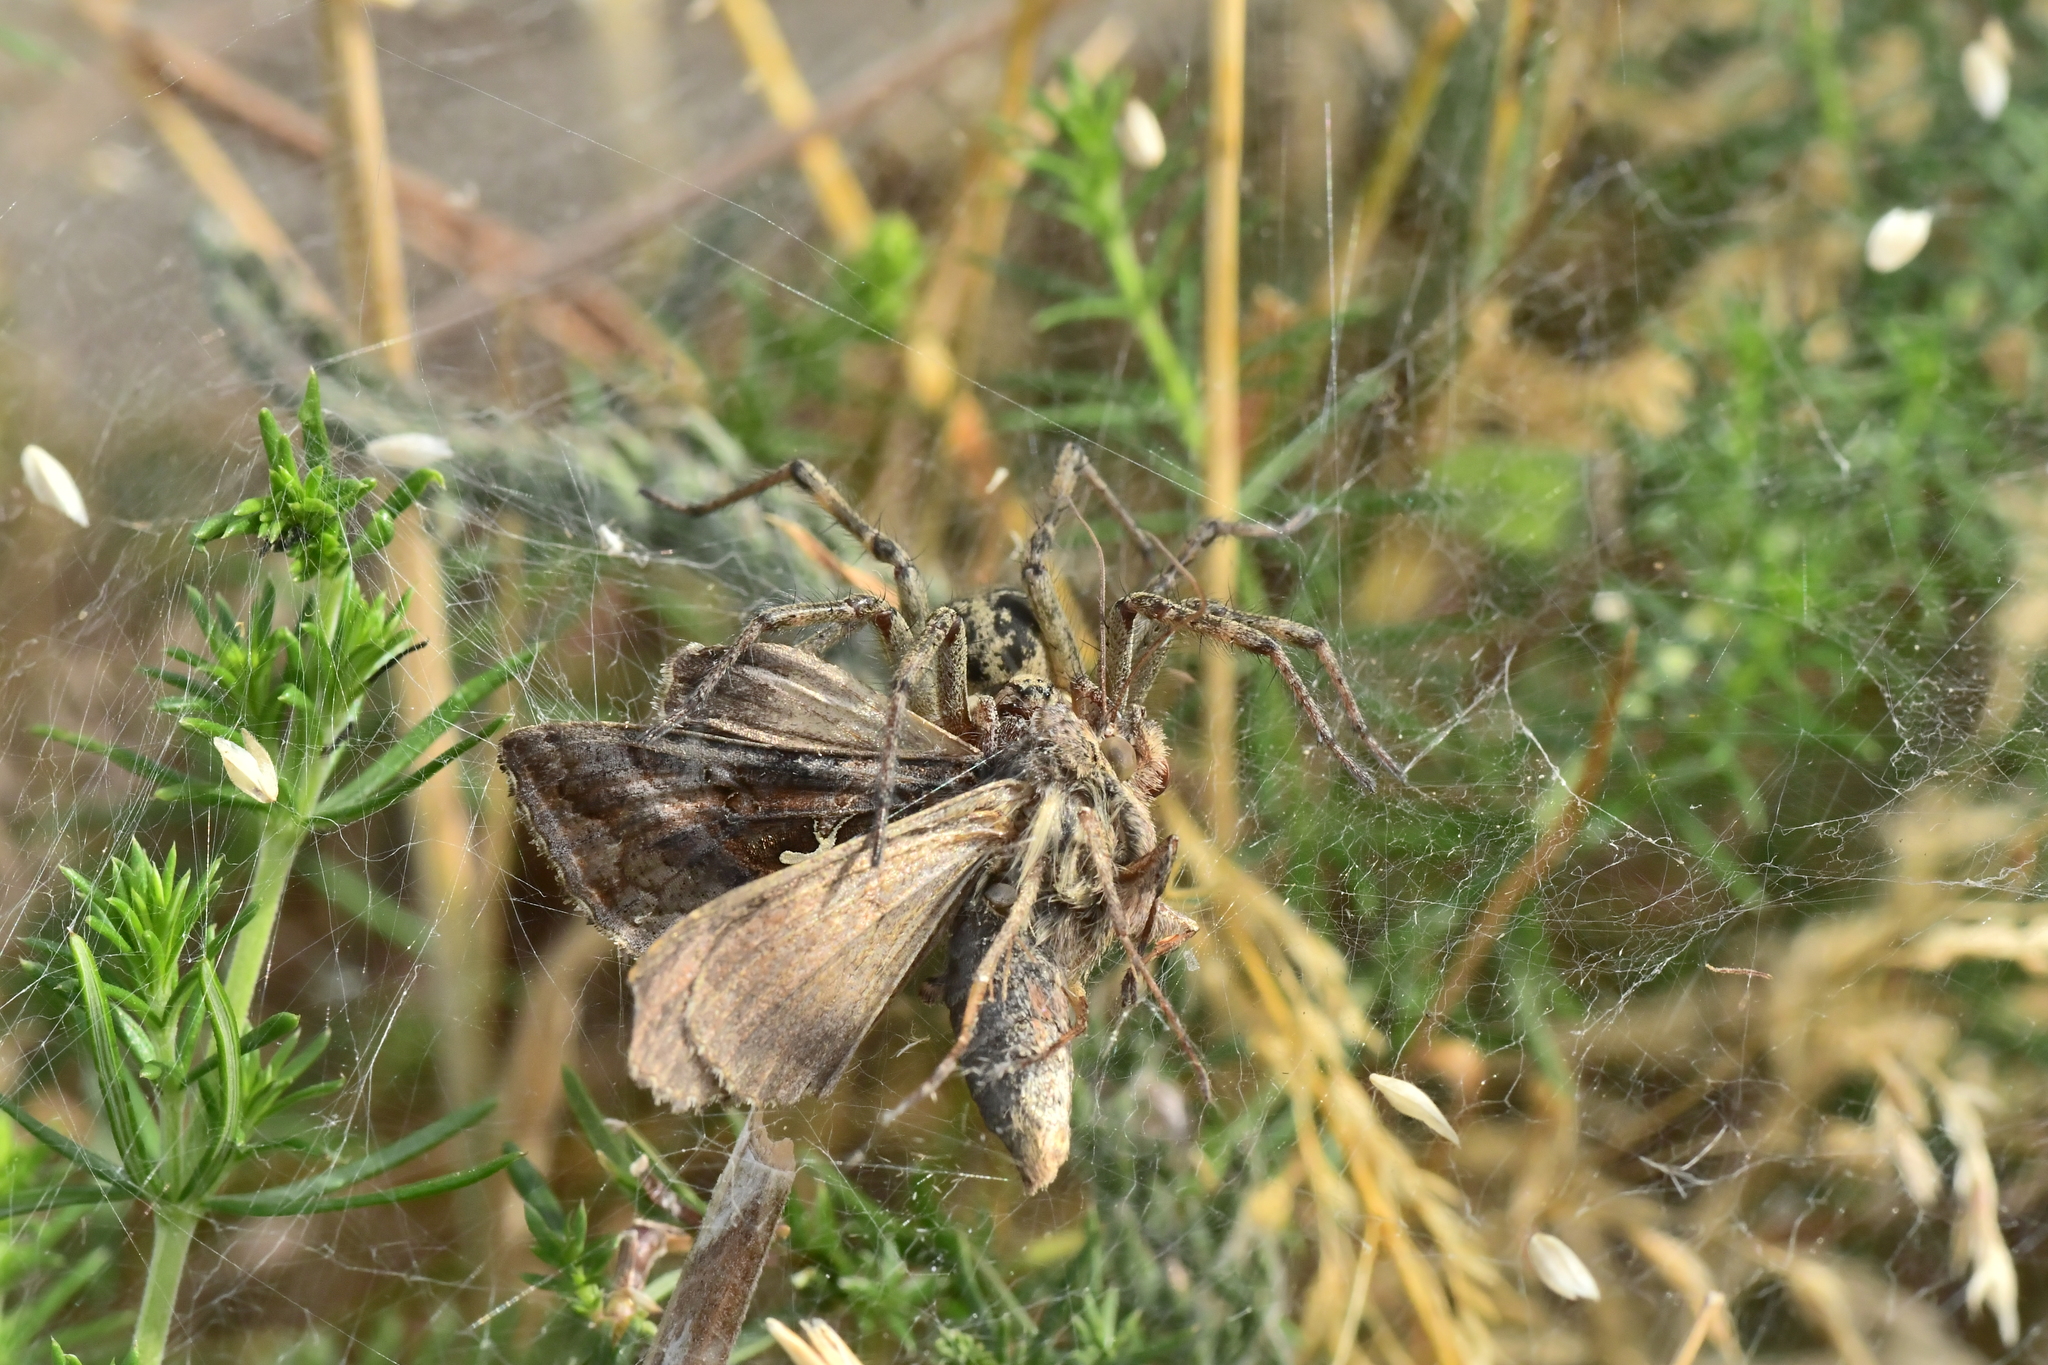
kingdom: Animalia
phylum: Arthropoda
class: Arachnida
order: Araneae
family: Agelenidae
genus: Agelena
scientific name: Agelena labyrinthica
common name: Labyrinth spider
